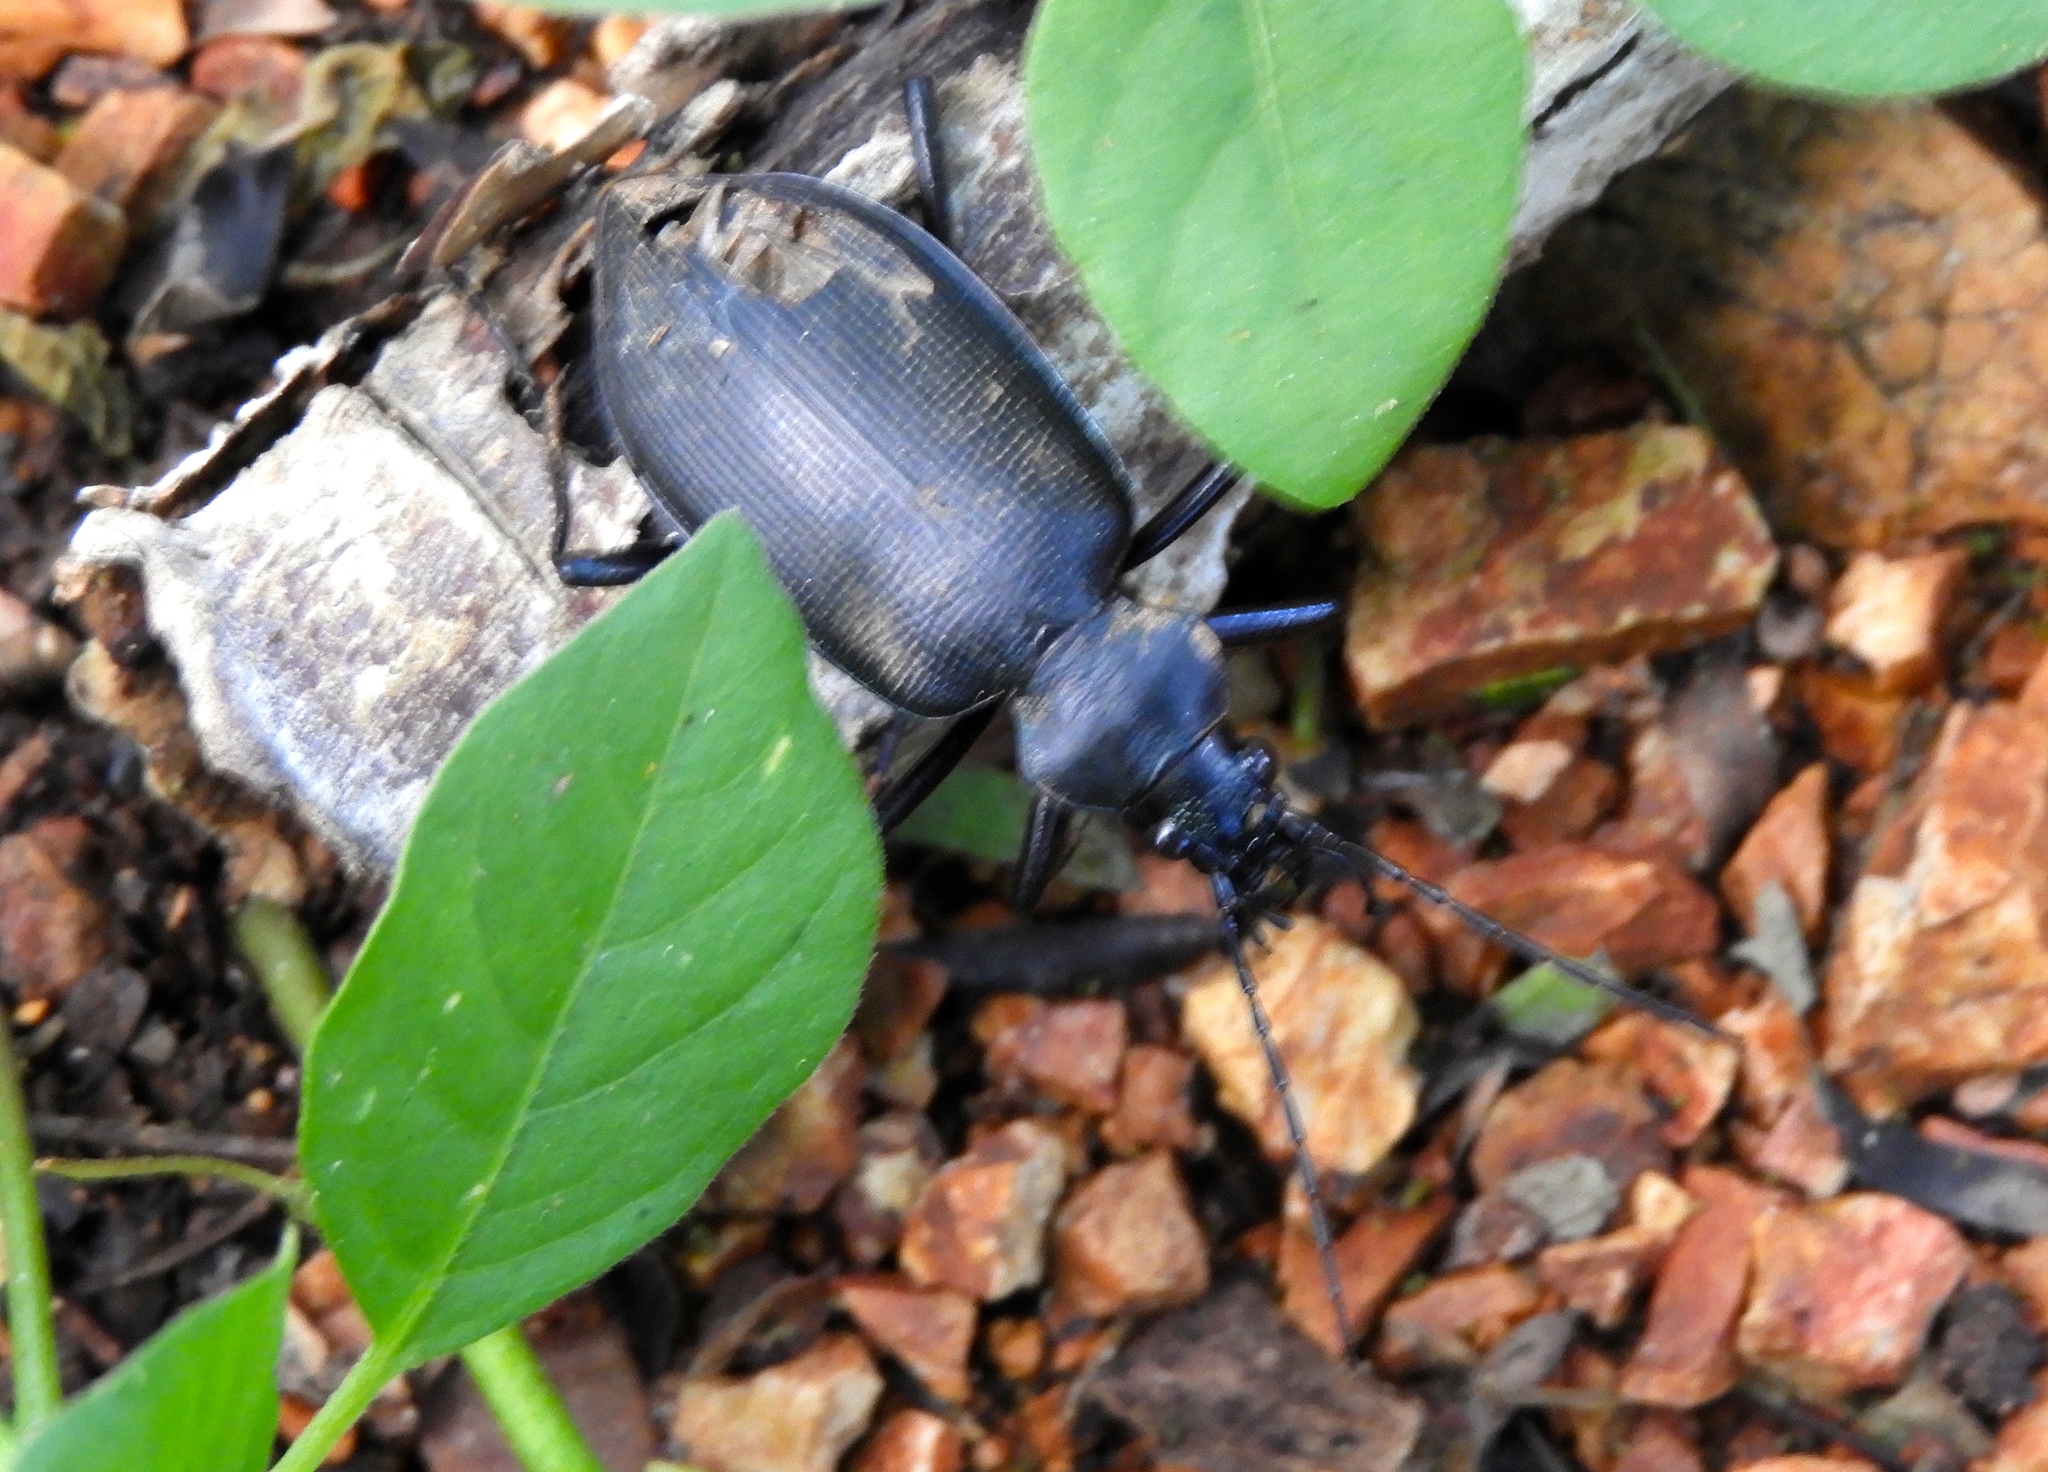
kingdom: Animalia
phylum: Arthropoda
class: Insecta
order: Coleoptera
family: Carabidae
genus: Calosoma
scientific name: Calosoma
